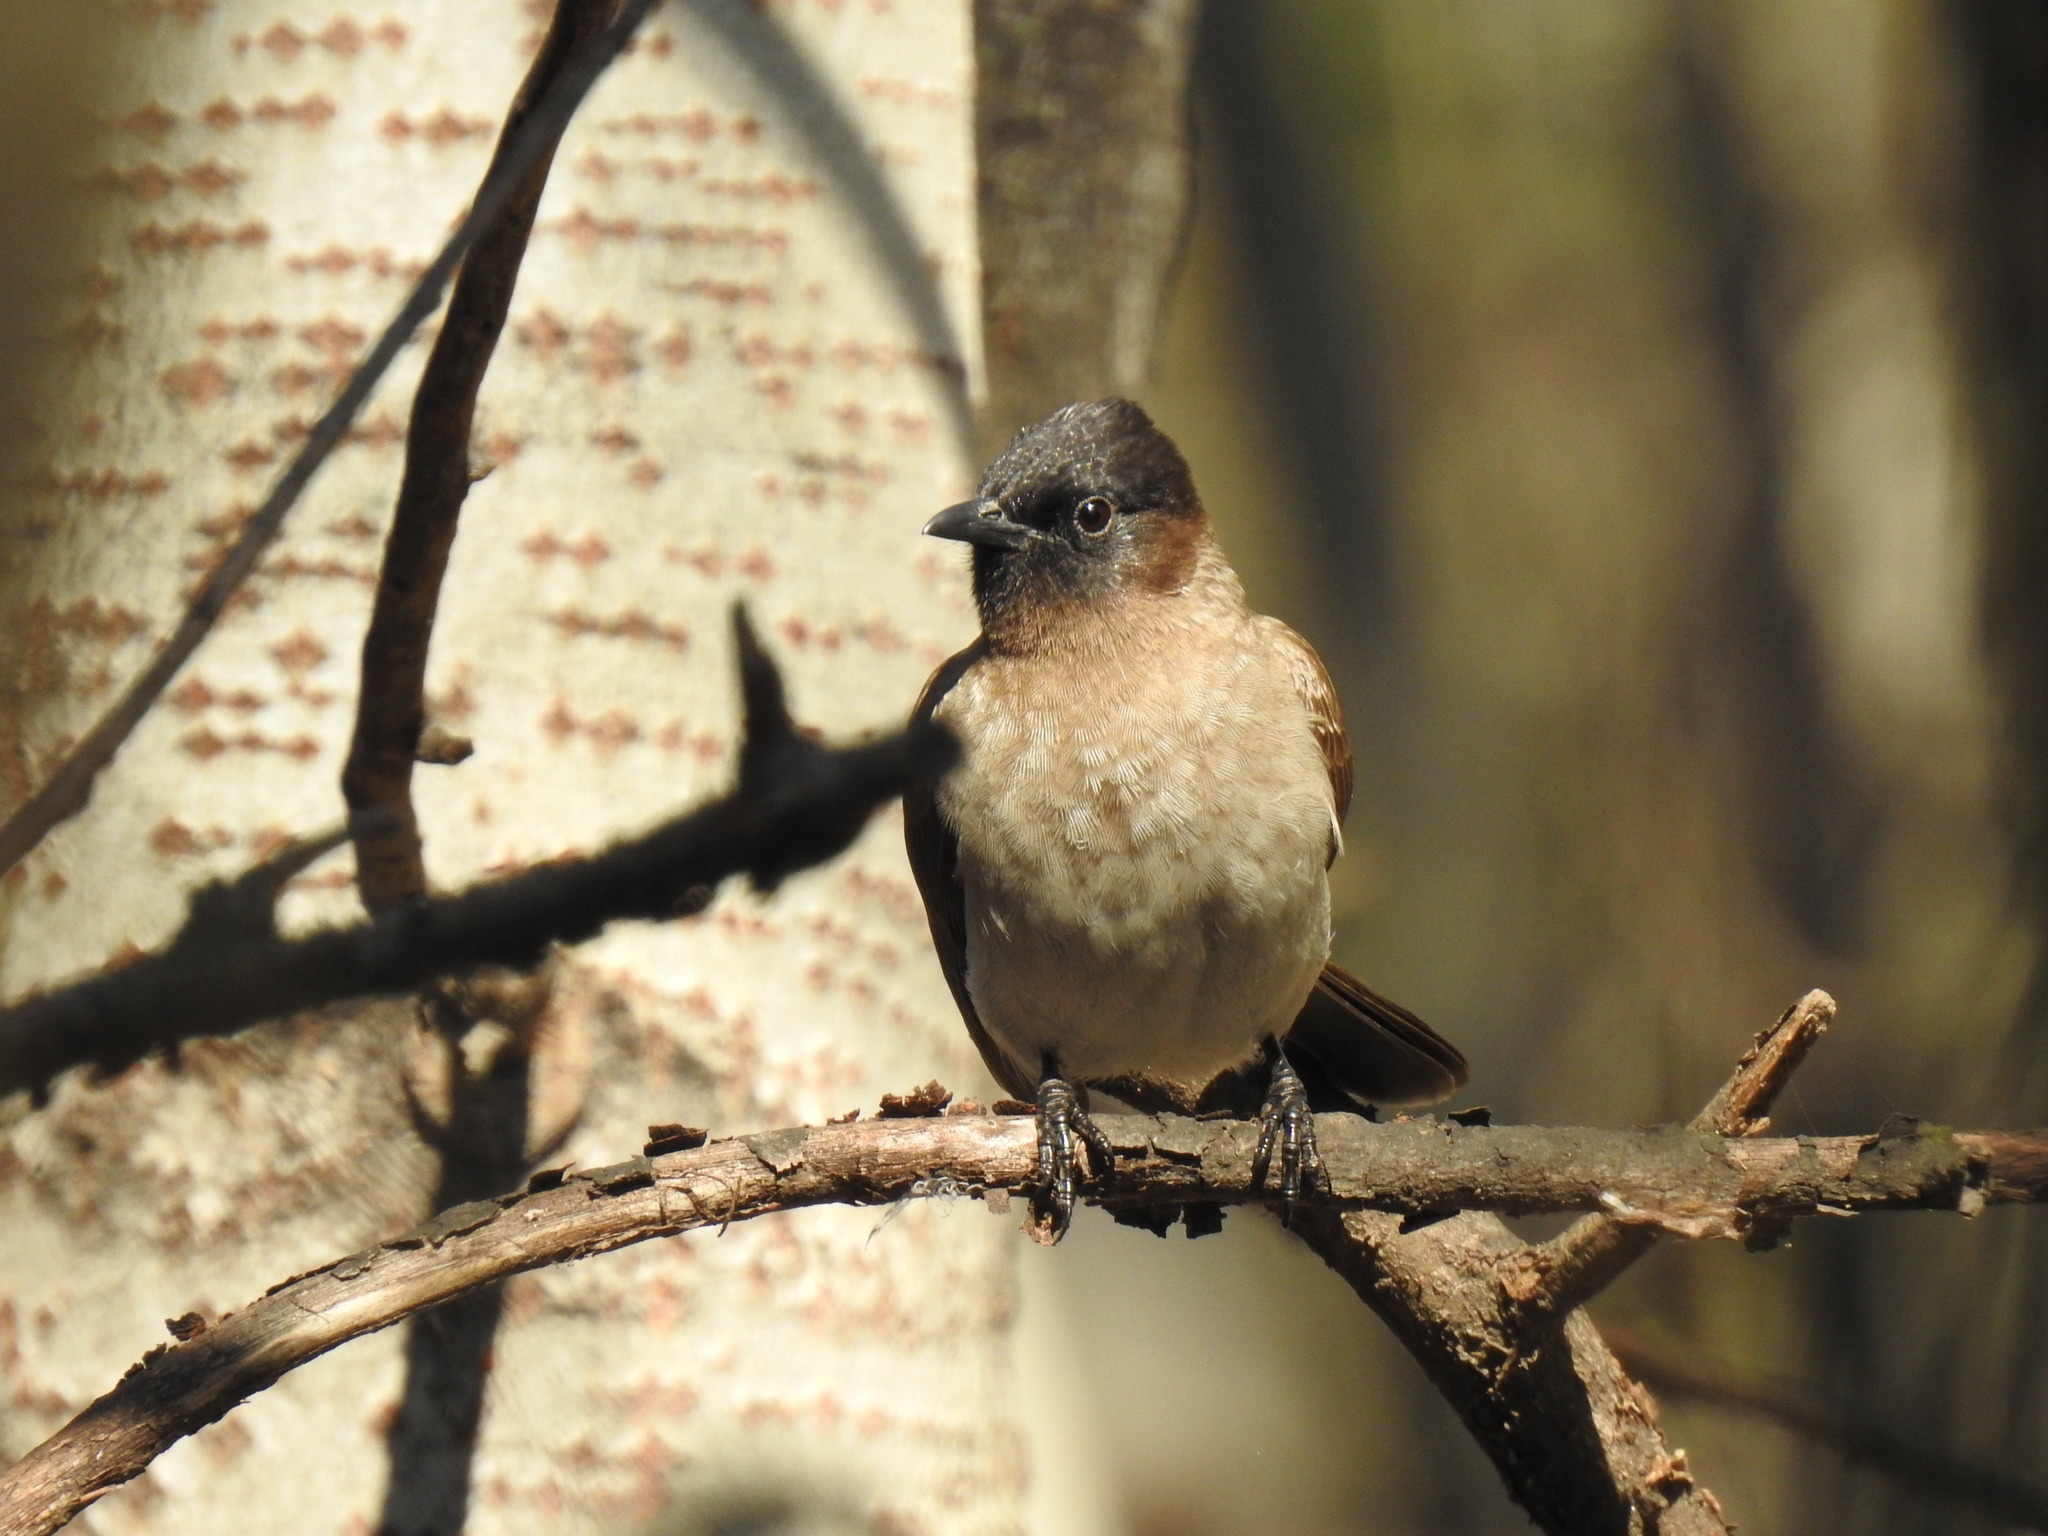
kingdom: Animalia
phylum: Chordata
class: Aves
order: Passeriformes
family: Pycnonotidae
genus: Pycnonotus
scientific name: Pycnonotus barbatus
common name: Common bulbul
